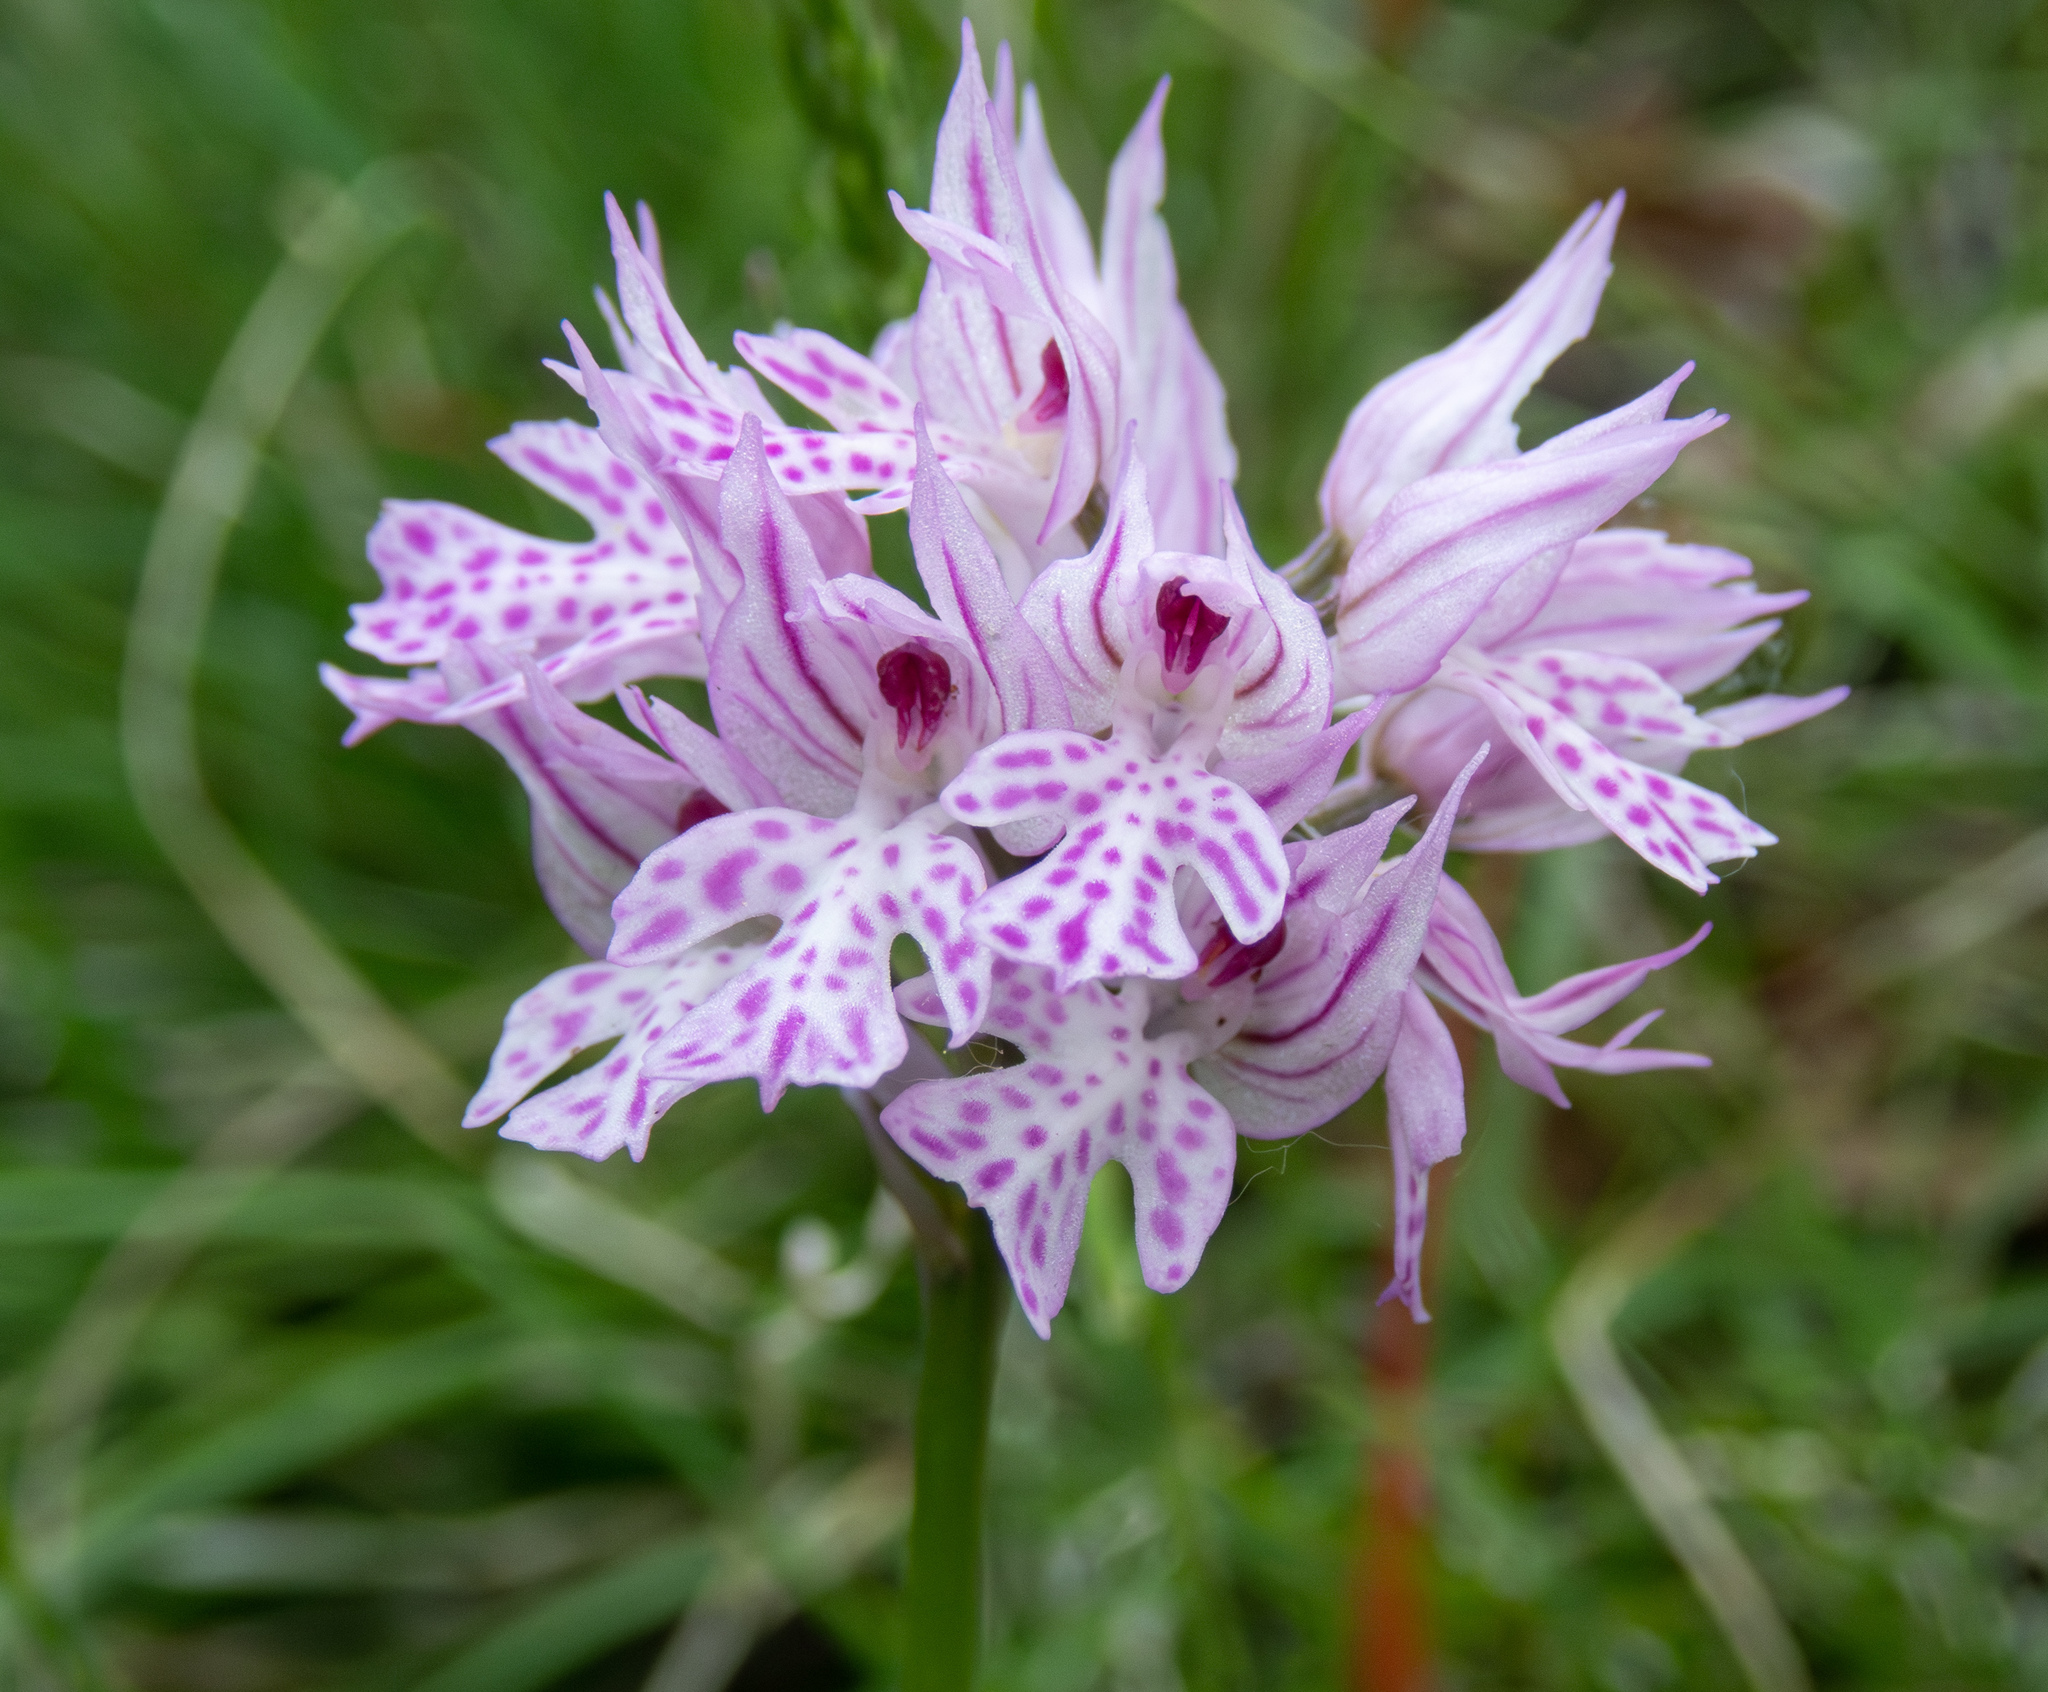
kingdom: Plantae
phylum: Tracheophyta
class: Liliopsida
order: Asparagales
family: Orchidaceae
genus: Neotinea
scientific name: Neotinea tridentata
